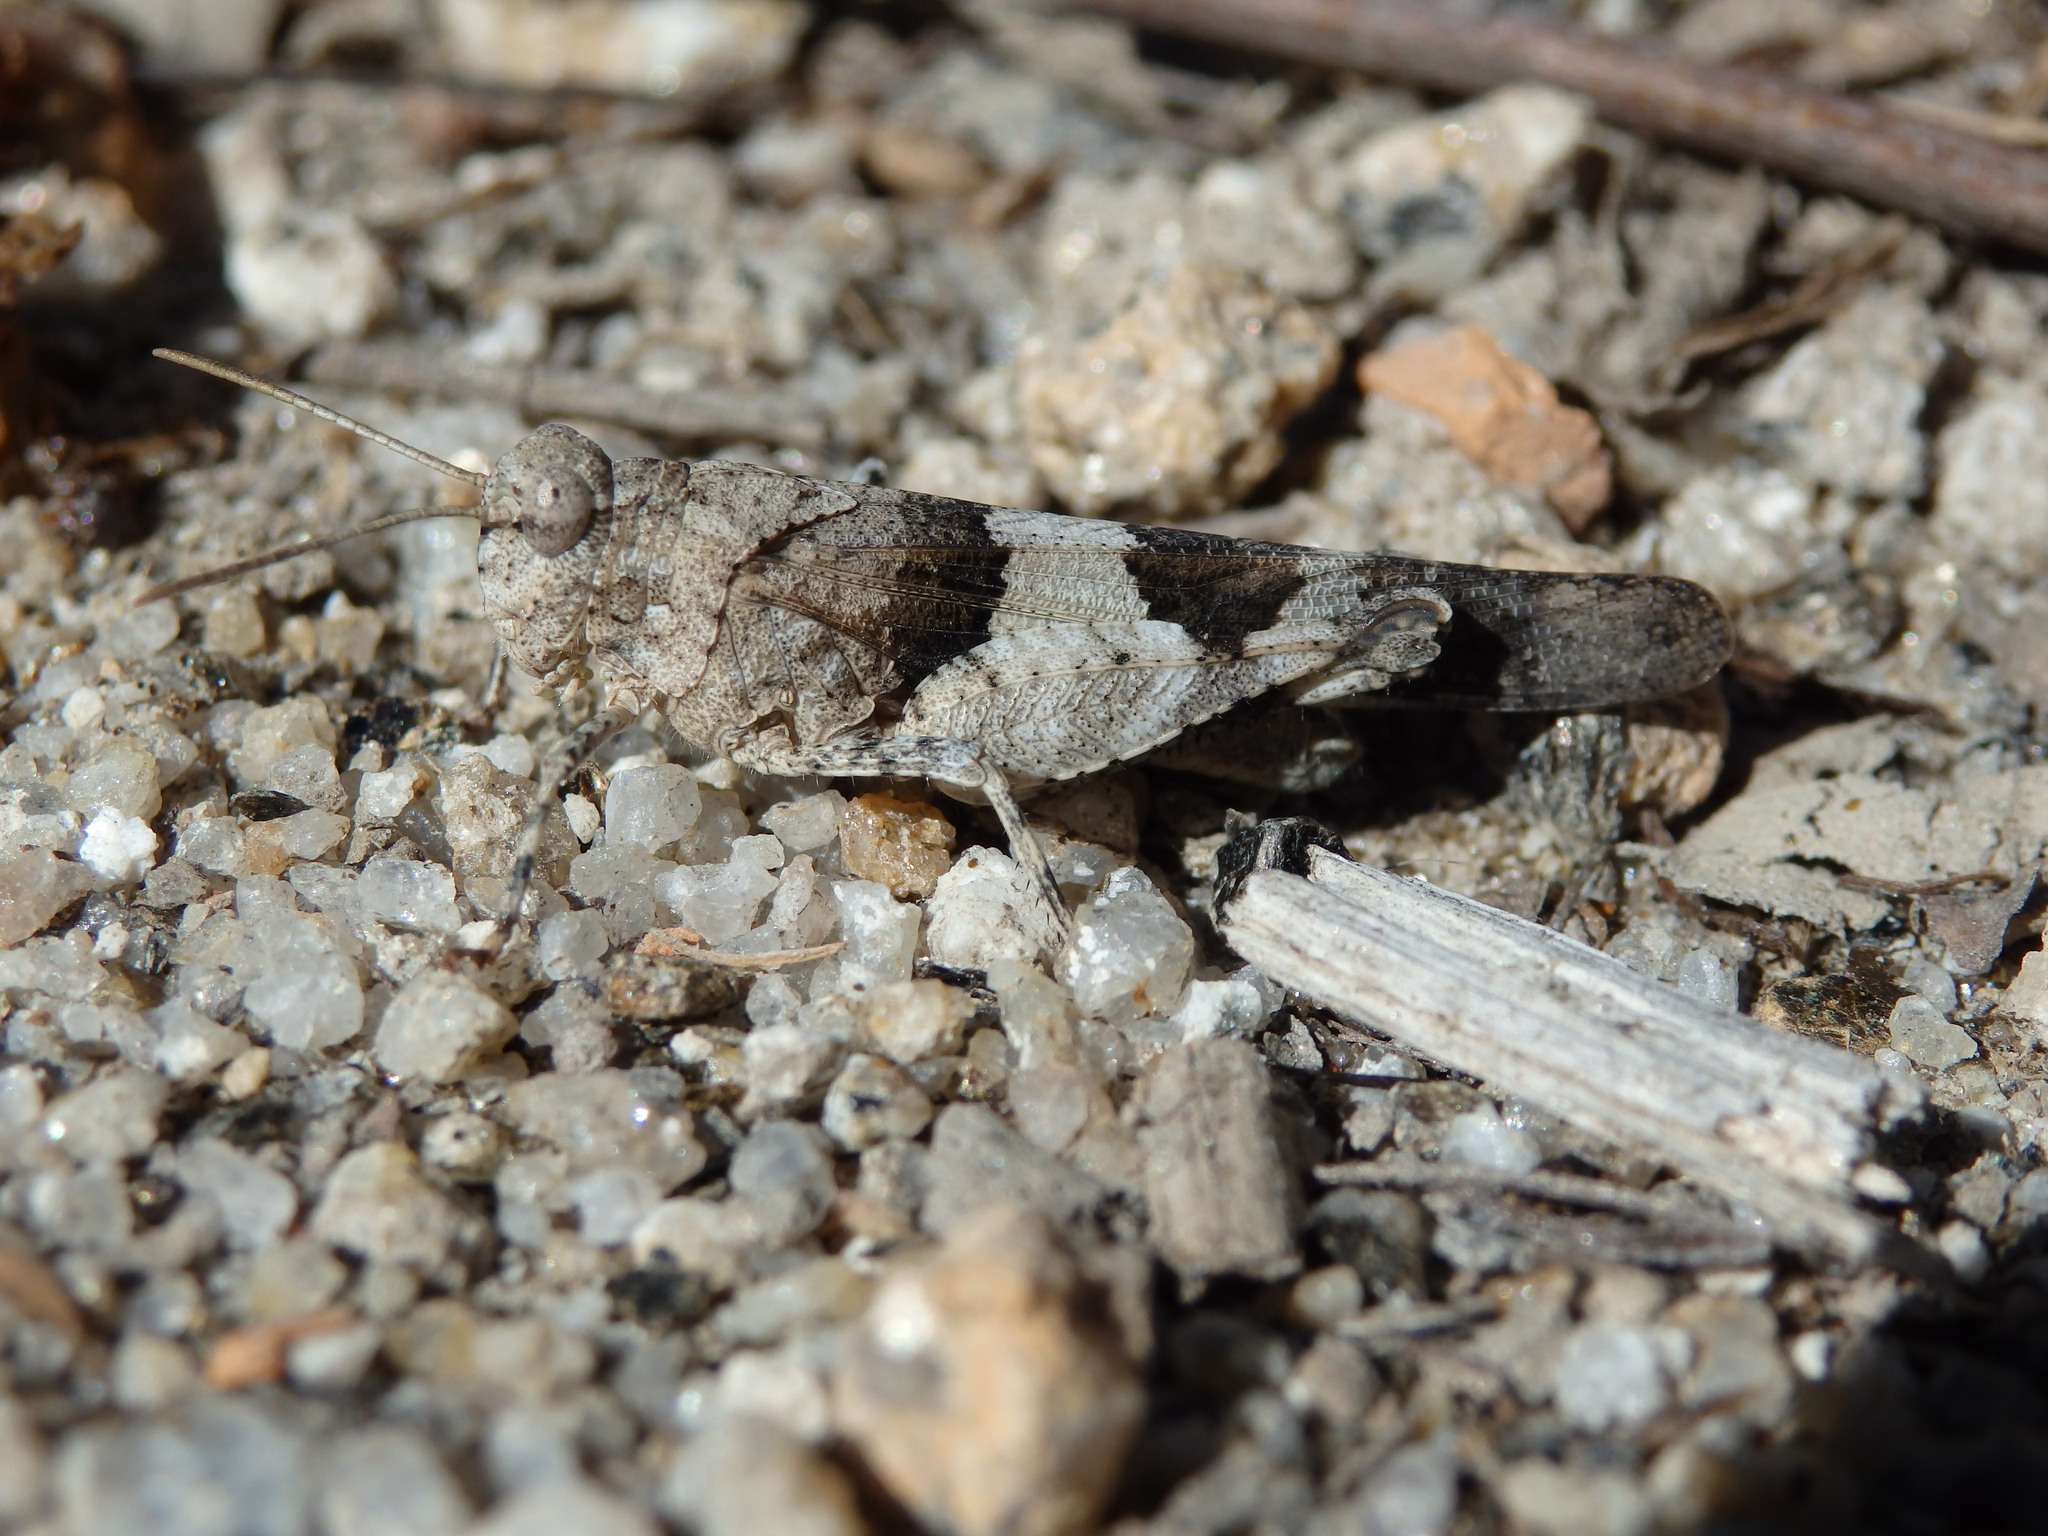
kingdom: Animalia
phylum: Arthropoda
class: Insecta
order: Orthoptera
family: Acrididae
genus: Oedipoda
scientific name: Oedipoda caerulescens
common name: Blue-winged grasshopper
